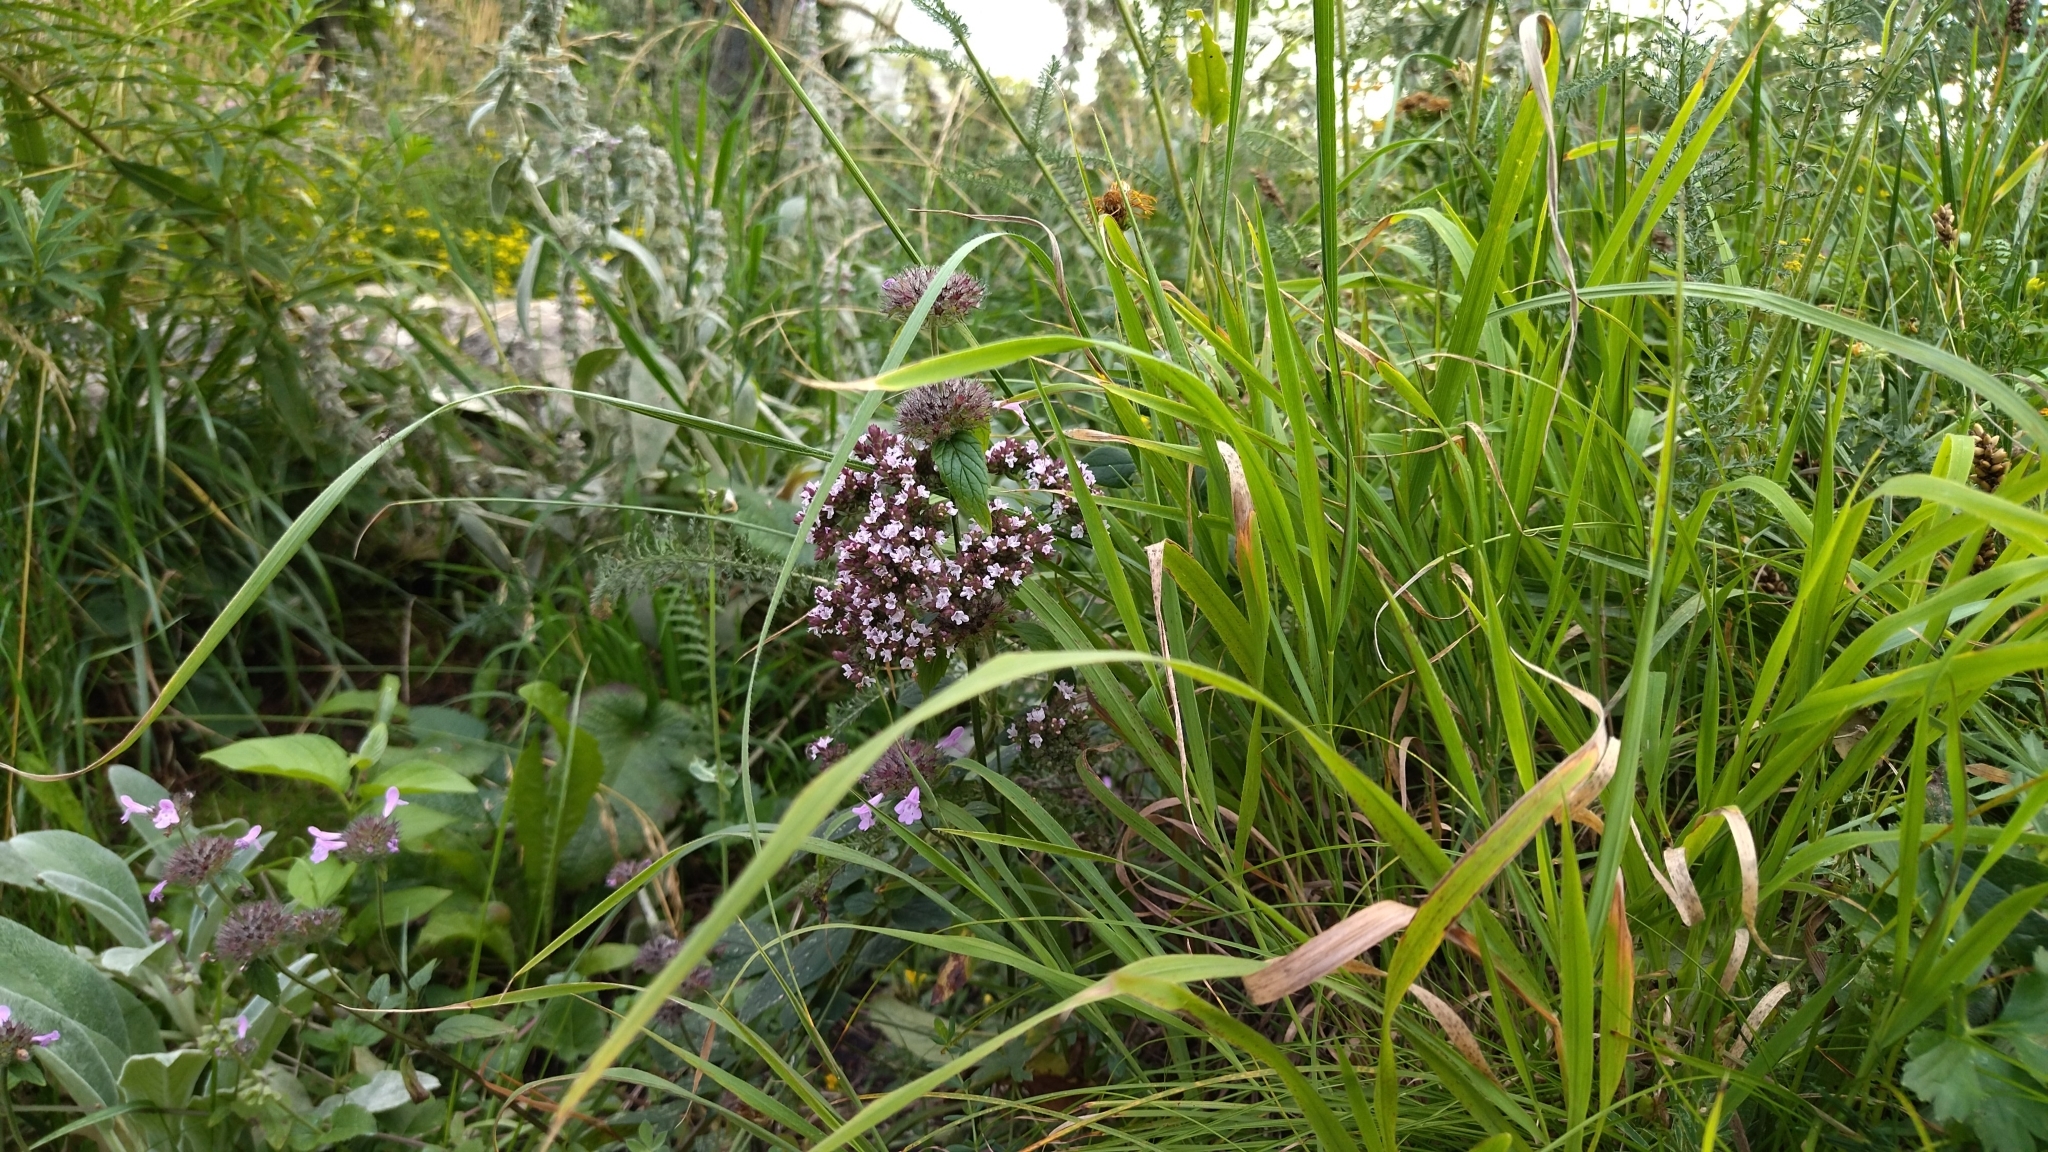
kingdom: Plantae
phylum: Tracheophyta
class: Magnoliopsida
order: Lamiales
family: Lamiaceae
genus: Origanum
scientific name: Origanum vulgare
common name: Wild marjoram
